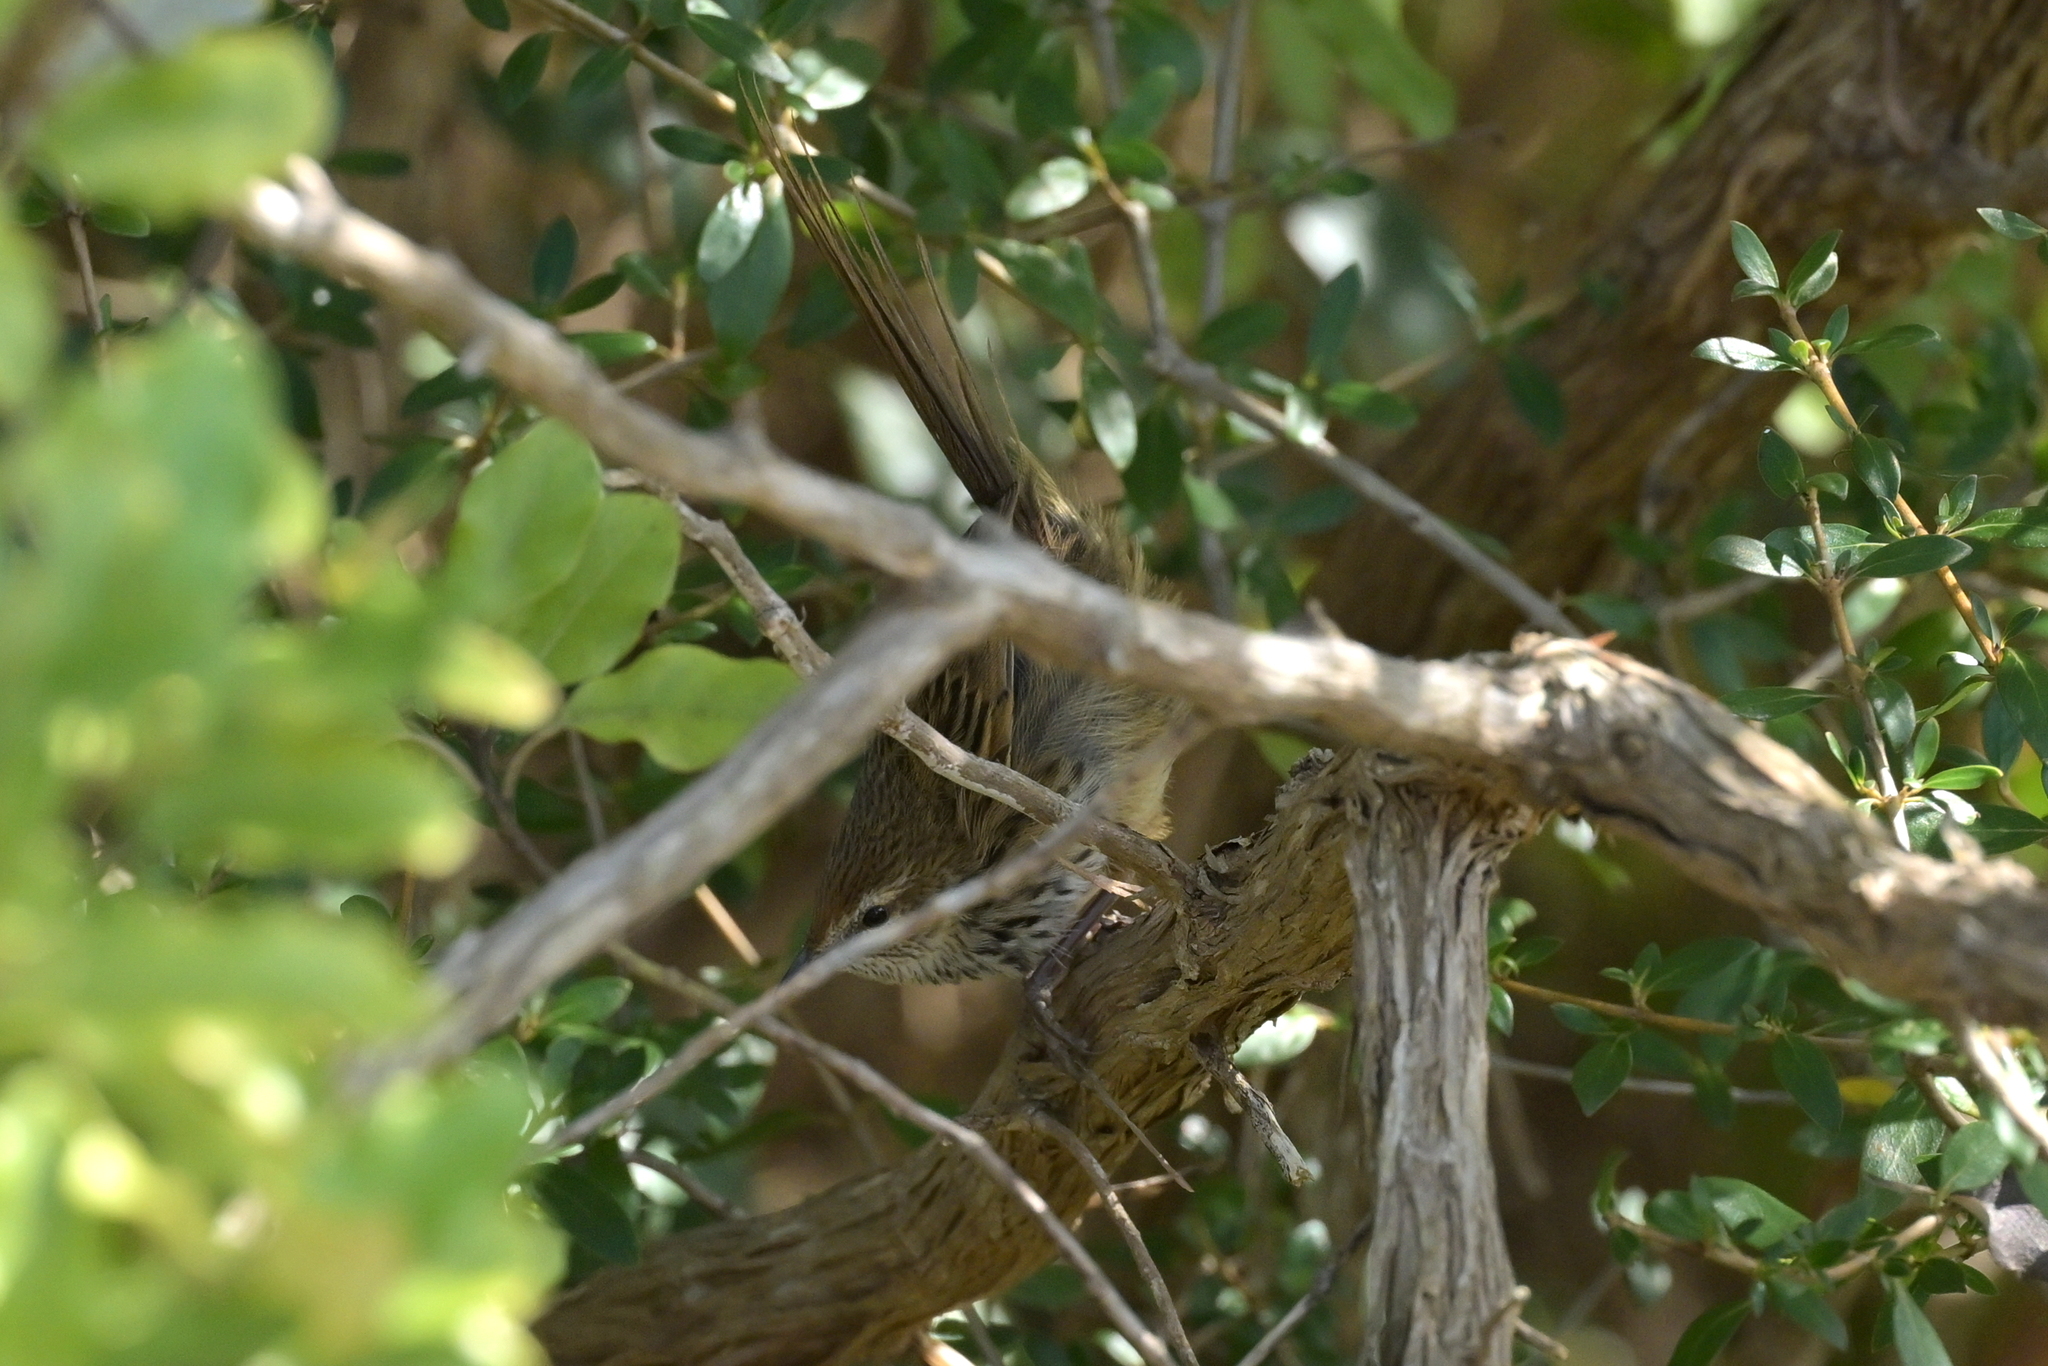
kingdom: Animalia
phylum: Chordata
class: Aves
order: Passeriformes
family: Locustellidae
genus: Megalurus
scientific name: Megalurus punctatus
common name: New zealand fernbird
